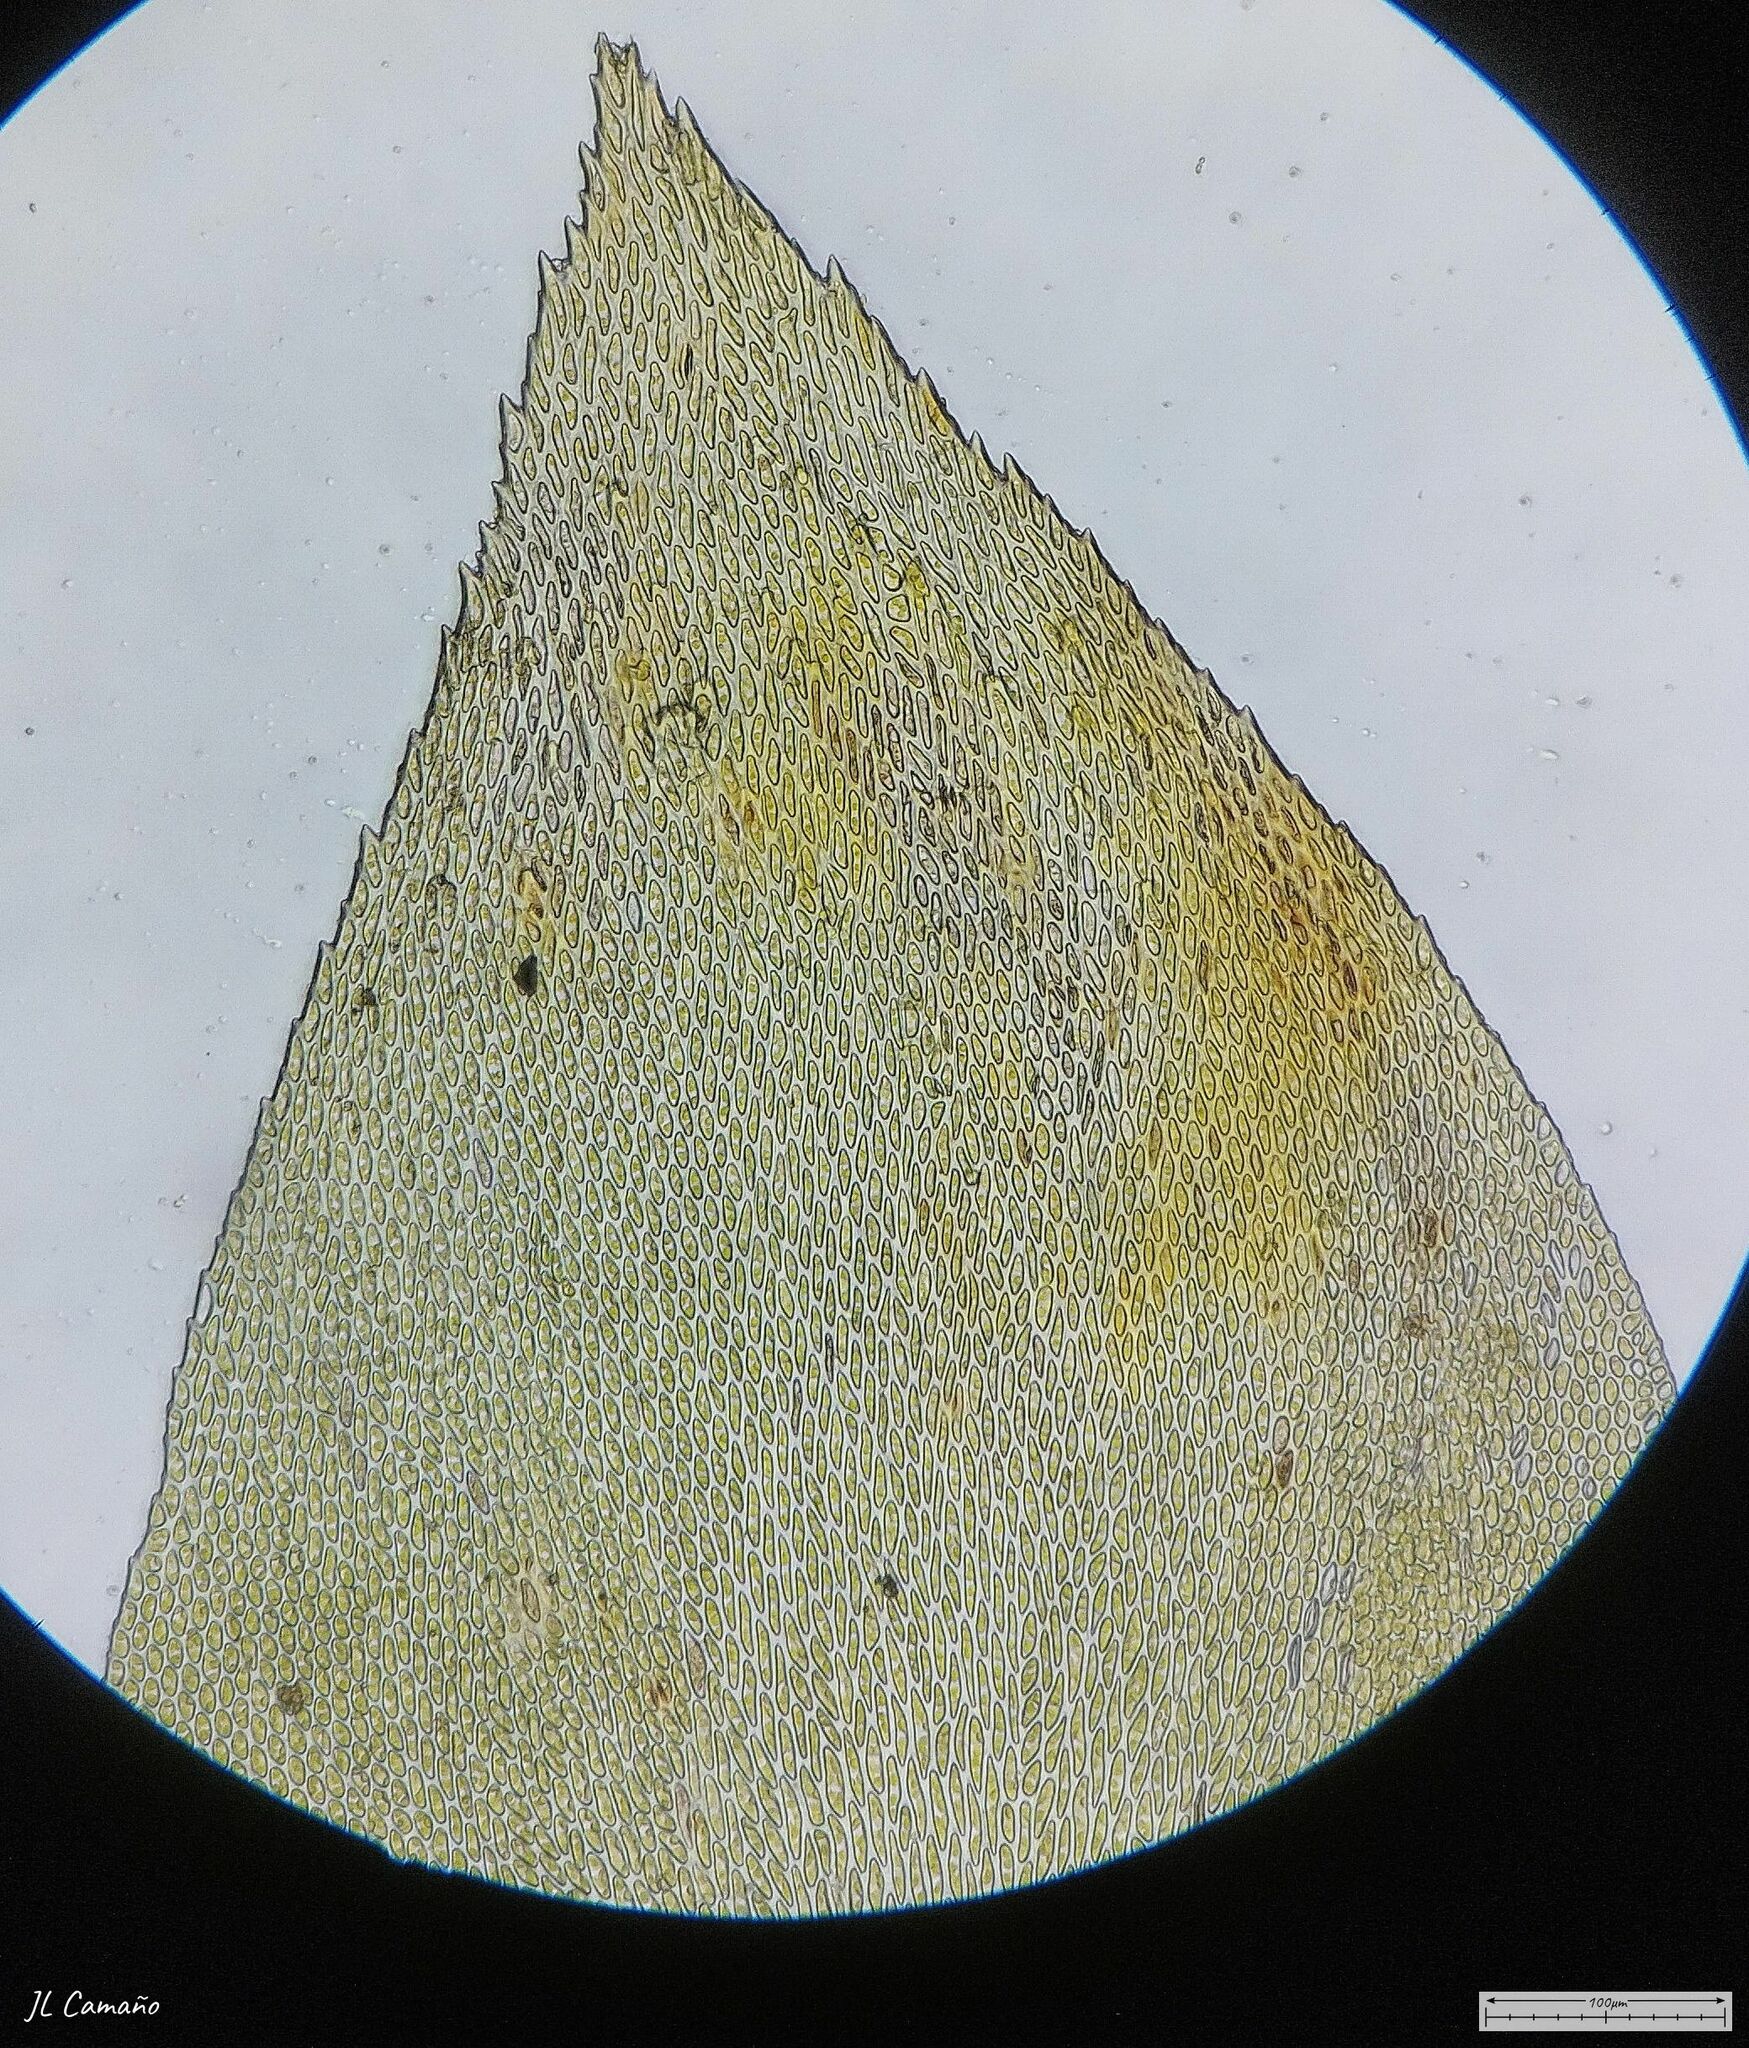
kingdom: Plantae
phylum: Bryophyta
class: Bryopsida
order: Hypnales
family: Lembophyllaceae
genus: Nogopterium
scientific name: Nogopterium gracile
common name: Bird's-foot wing-moss
